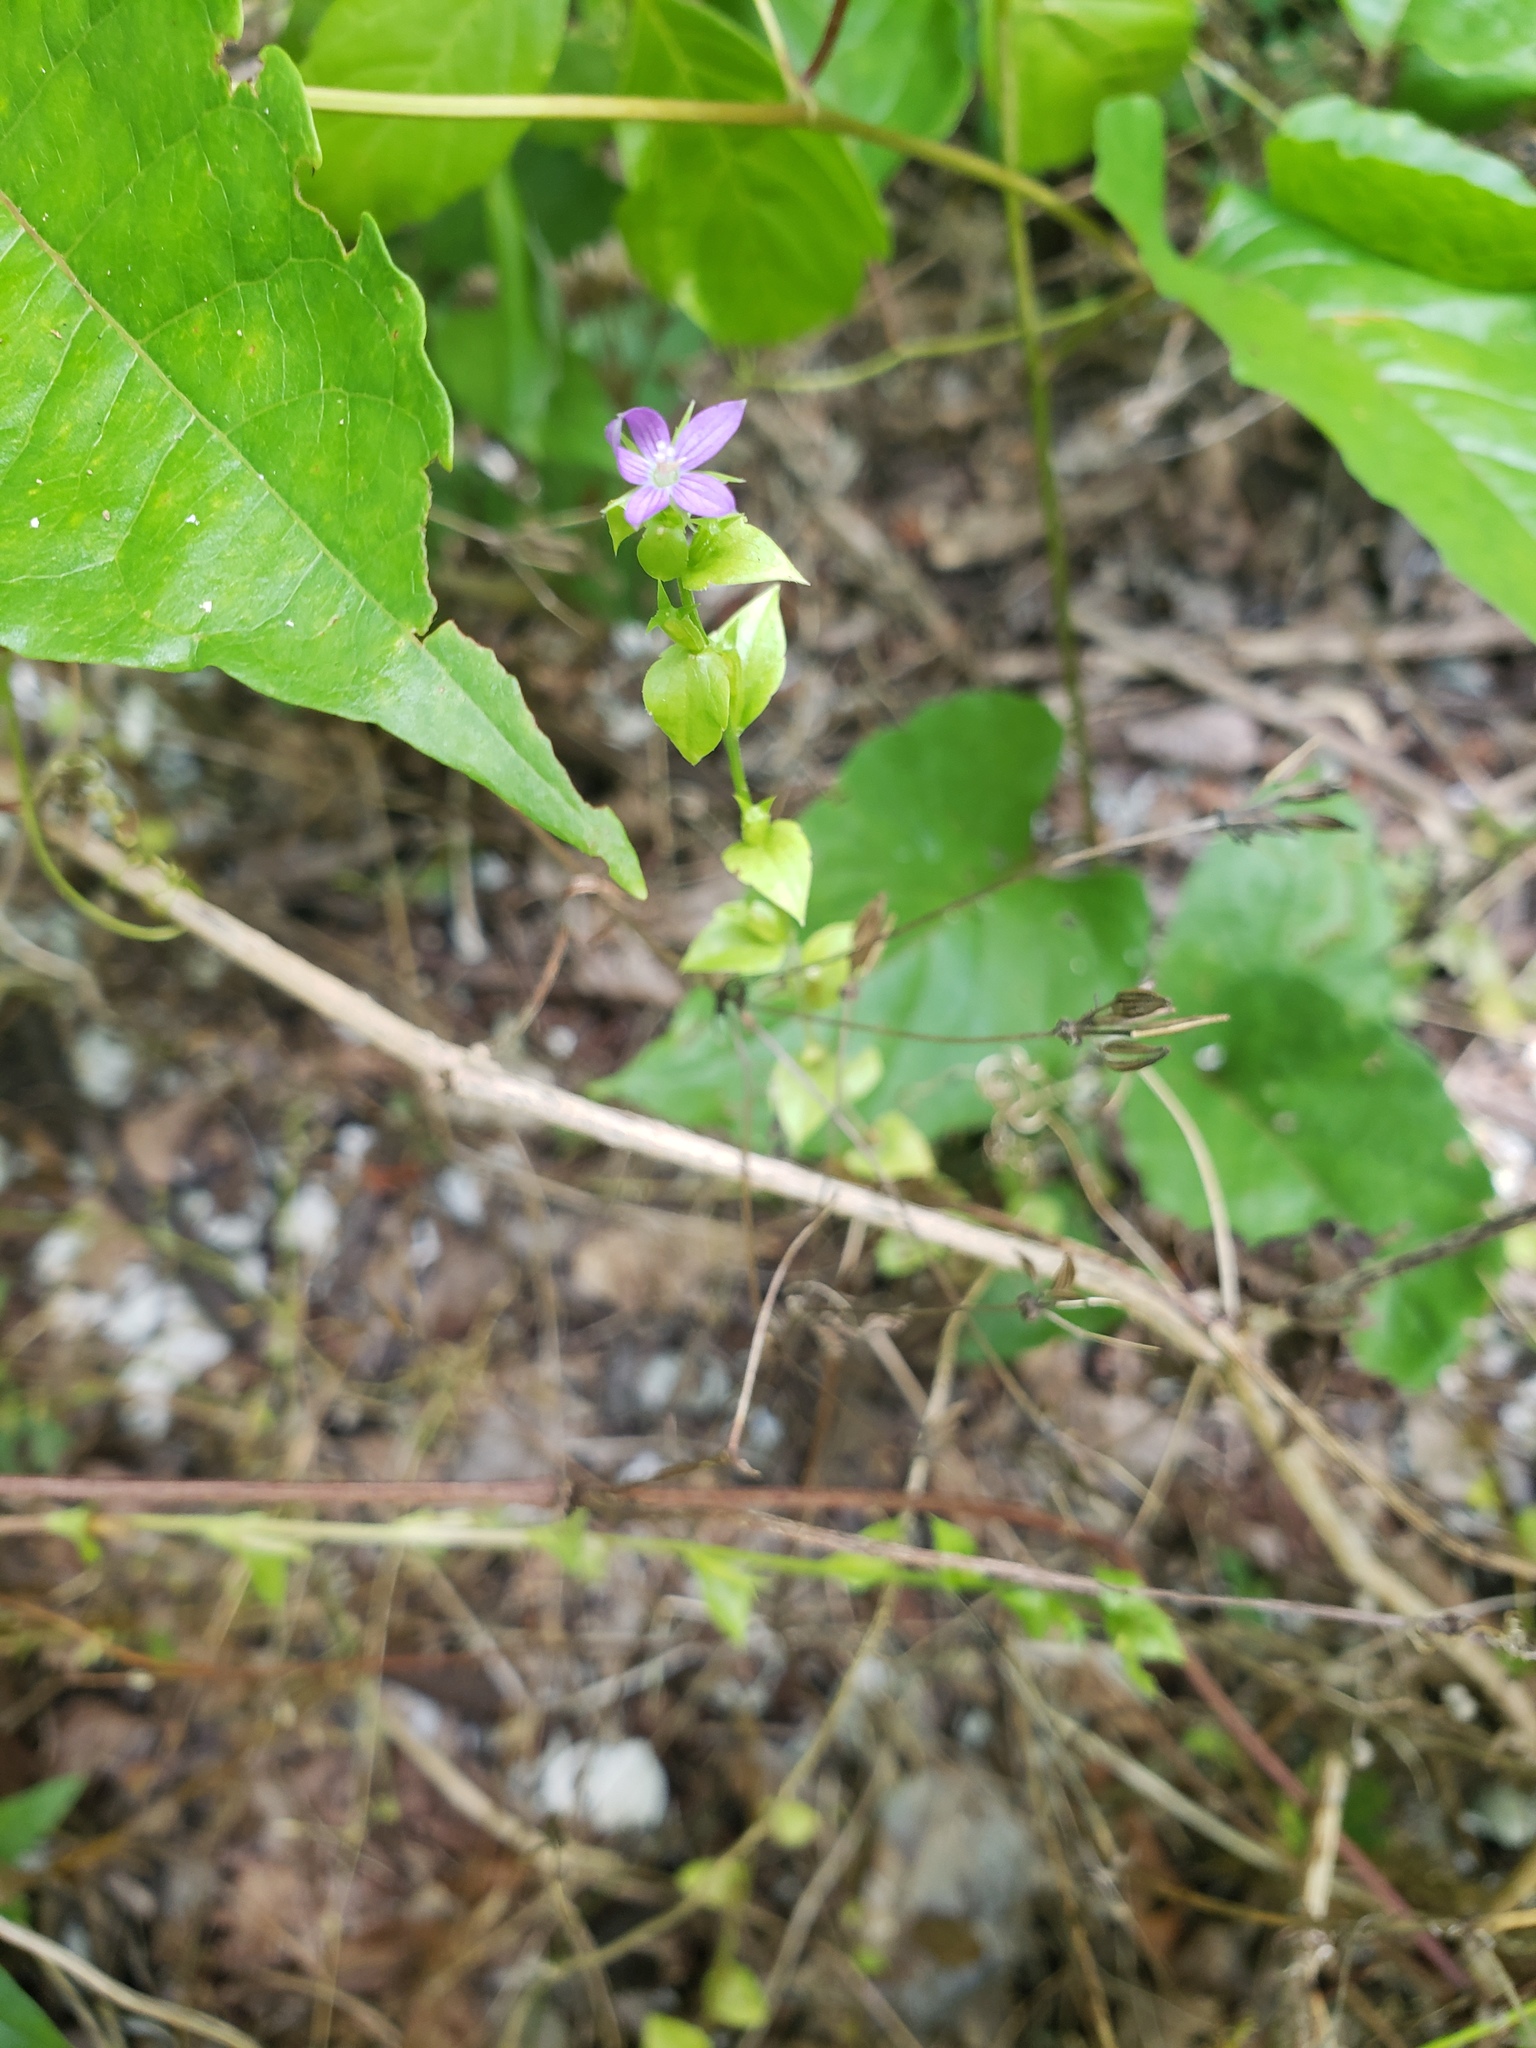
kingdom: Plantae
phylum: Tracheophyta
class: Magnoliopsida
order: Asterales
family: Campanulaceae
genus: Triodanis
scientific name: Triodanis perfoliata
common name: Clasping venus' looking-glass
